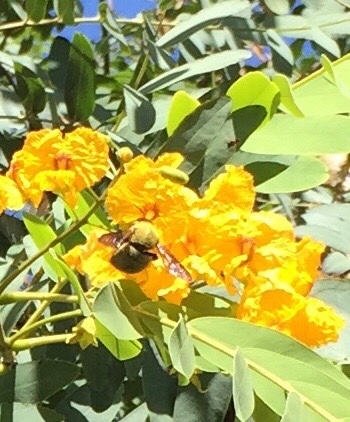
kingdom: Animalia
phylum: Arthropoda
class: Insecta
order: Hymenoptera
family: Apidae
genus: Xylocopa
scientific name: Xylocopa pubescens
